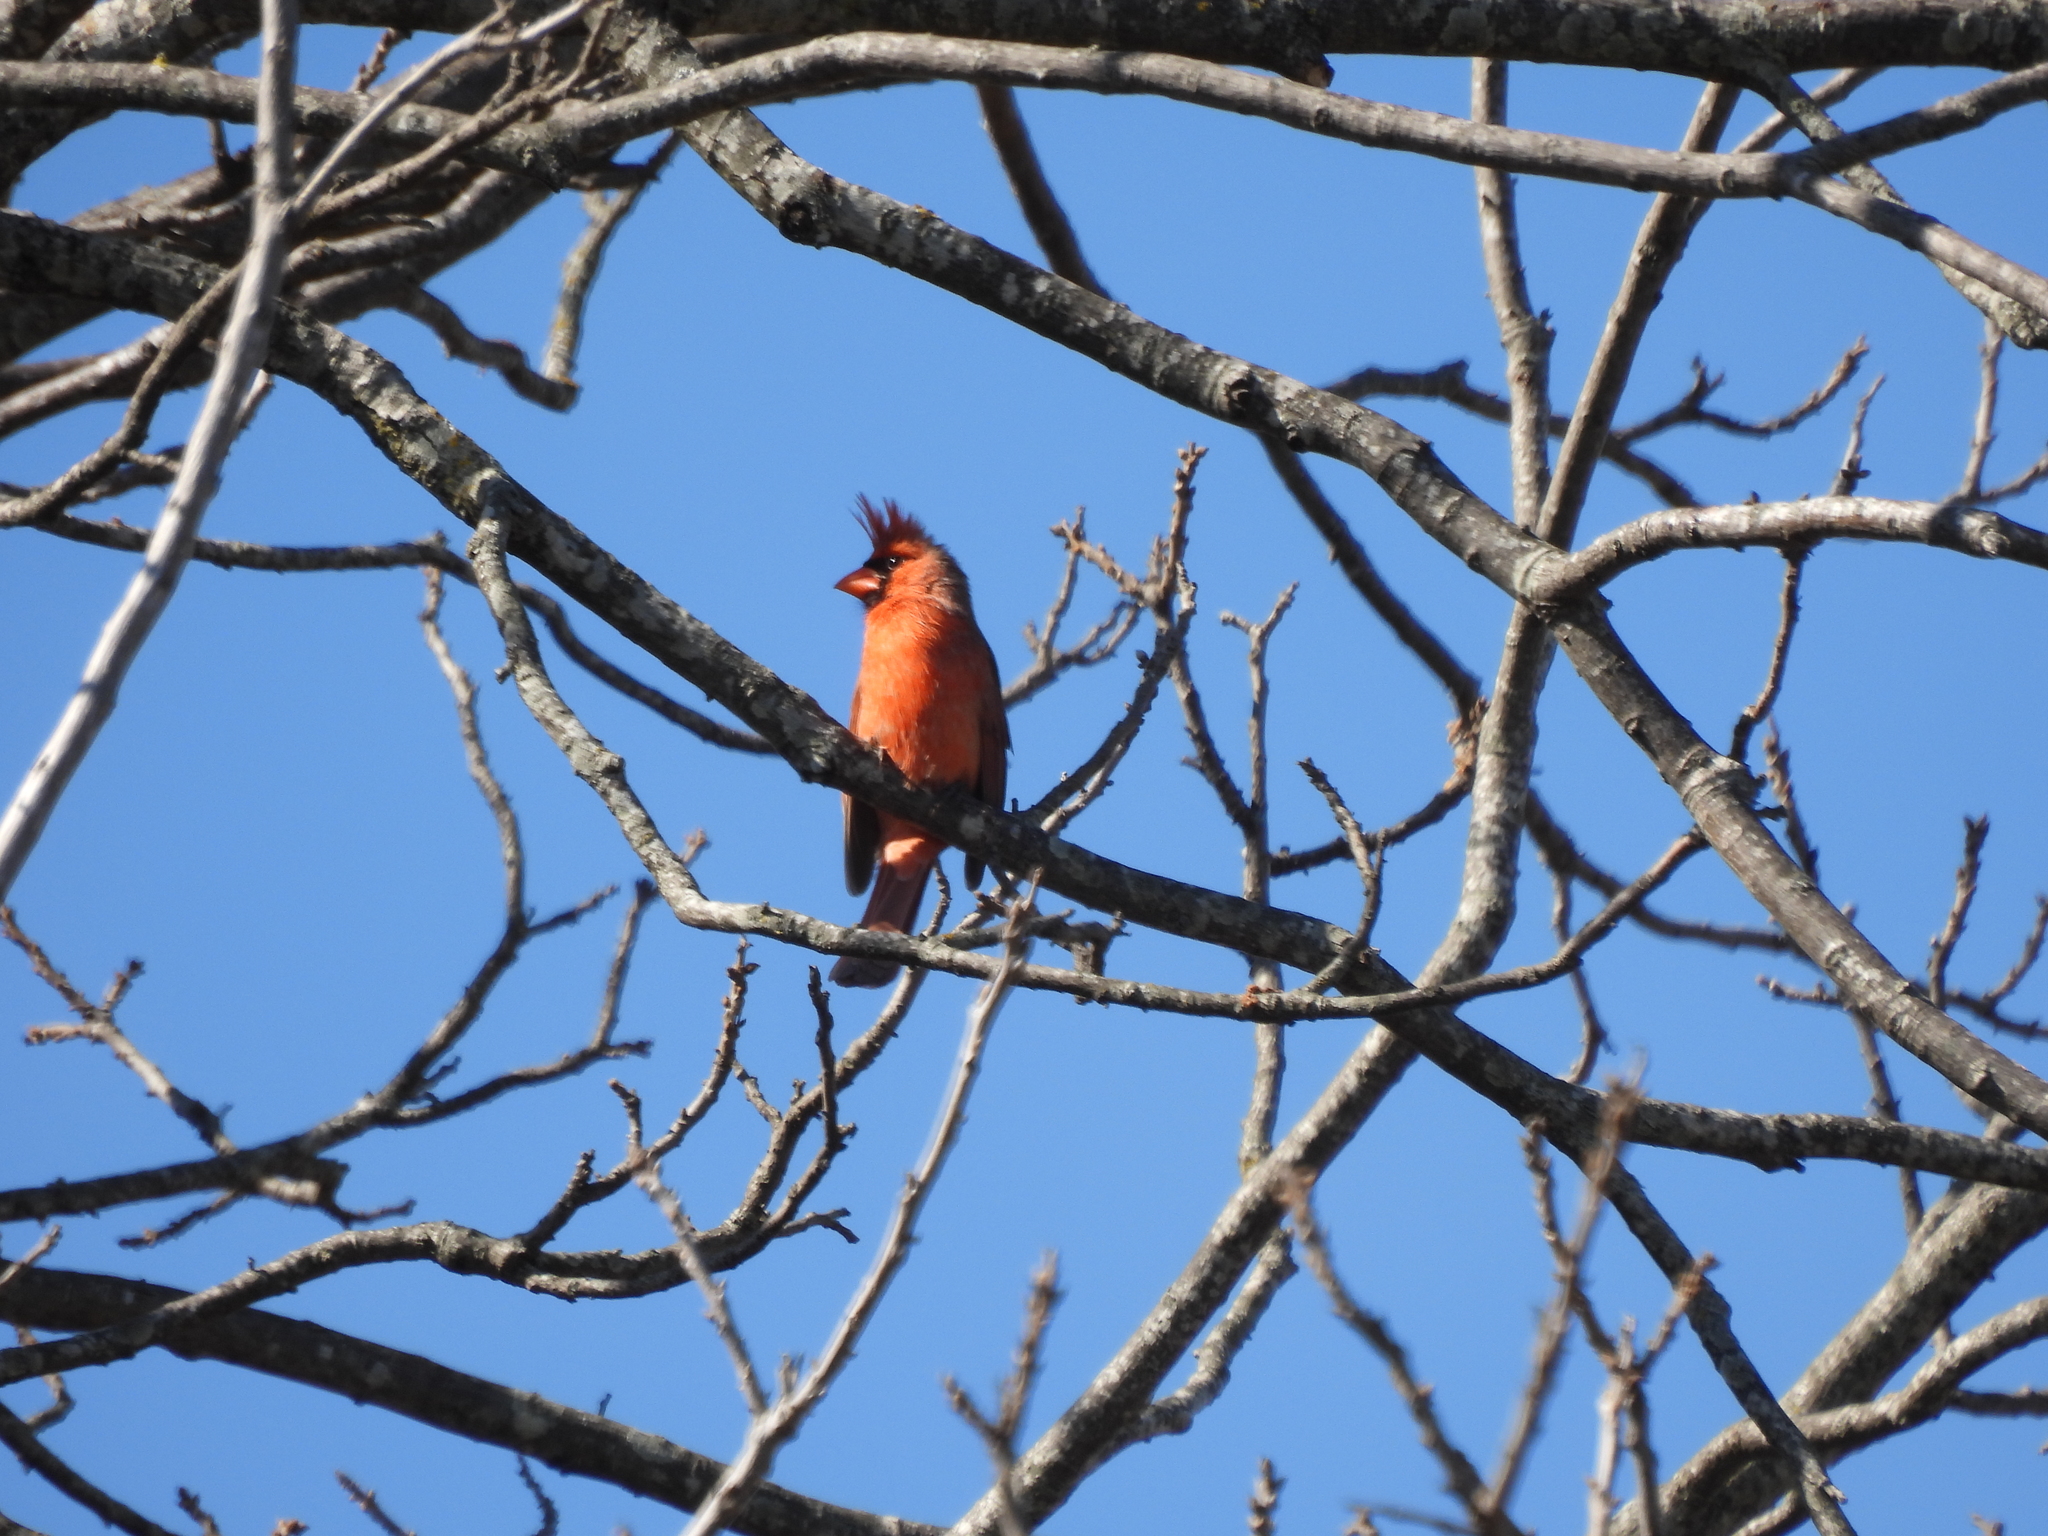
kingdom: Animalia
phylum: Chordata
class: Aves
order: Passeriformes
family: Cardinalidae
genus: Cardinalis
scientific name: Cardinalis cardinalis
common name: Northern cardinal
